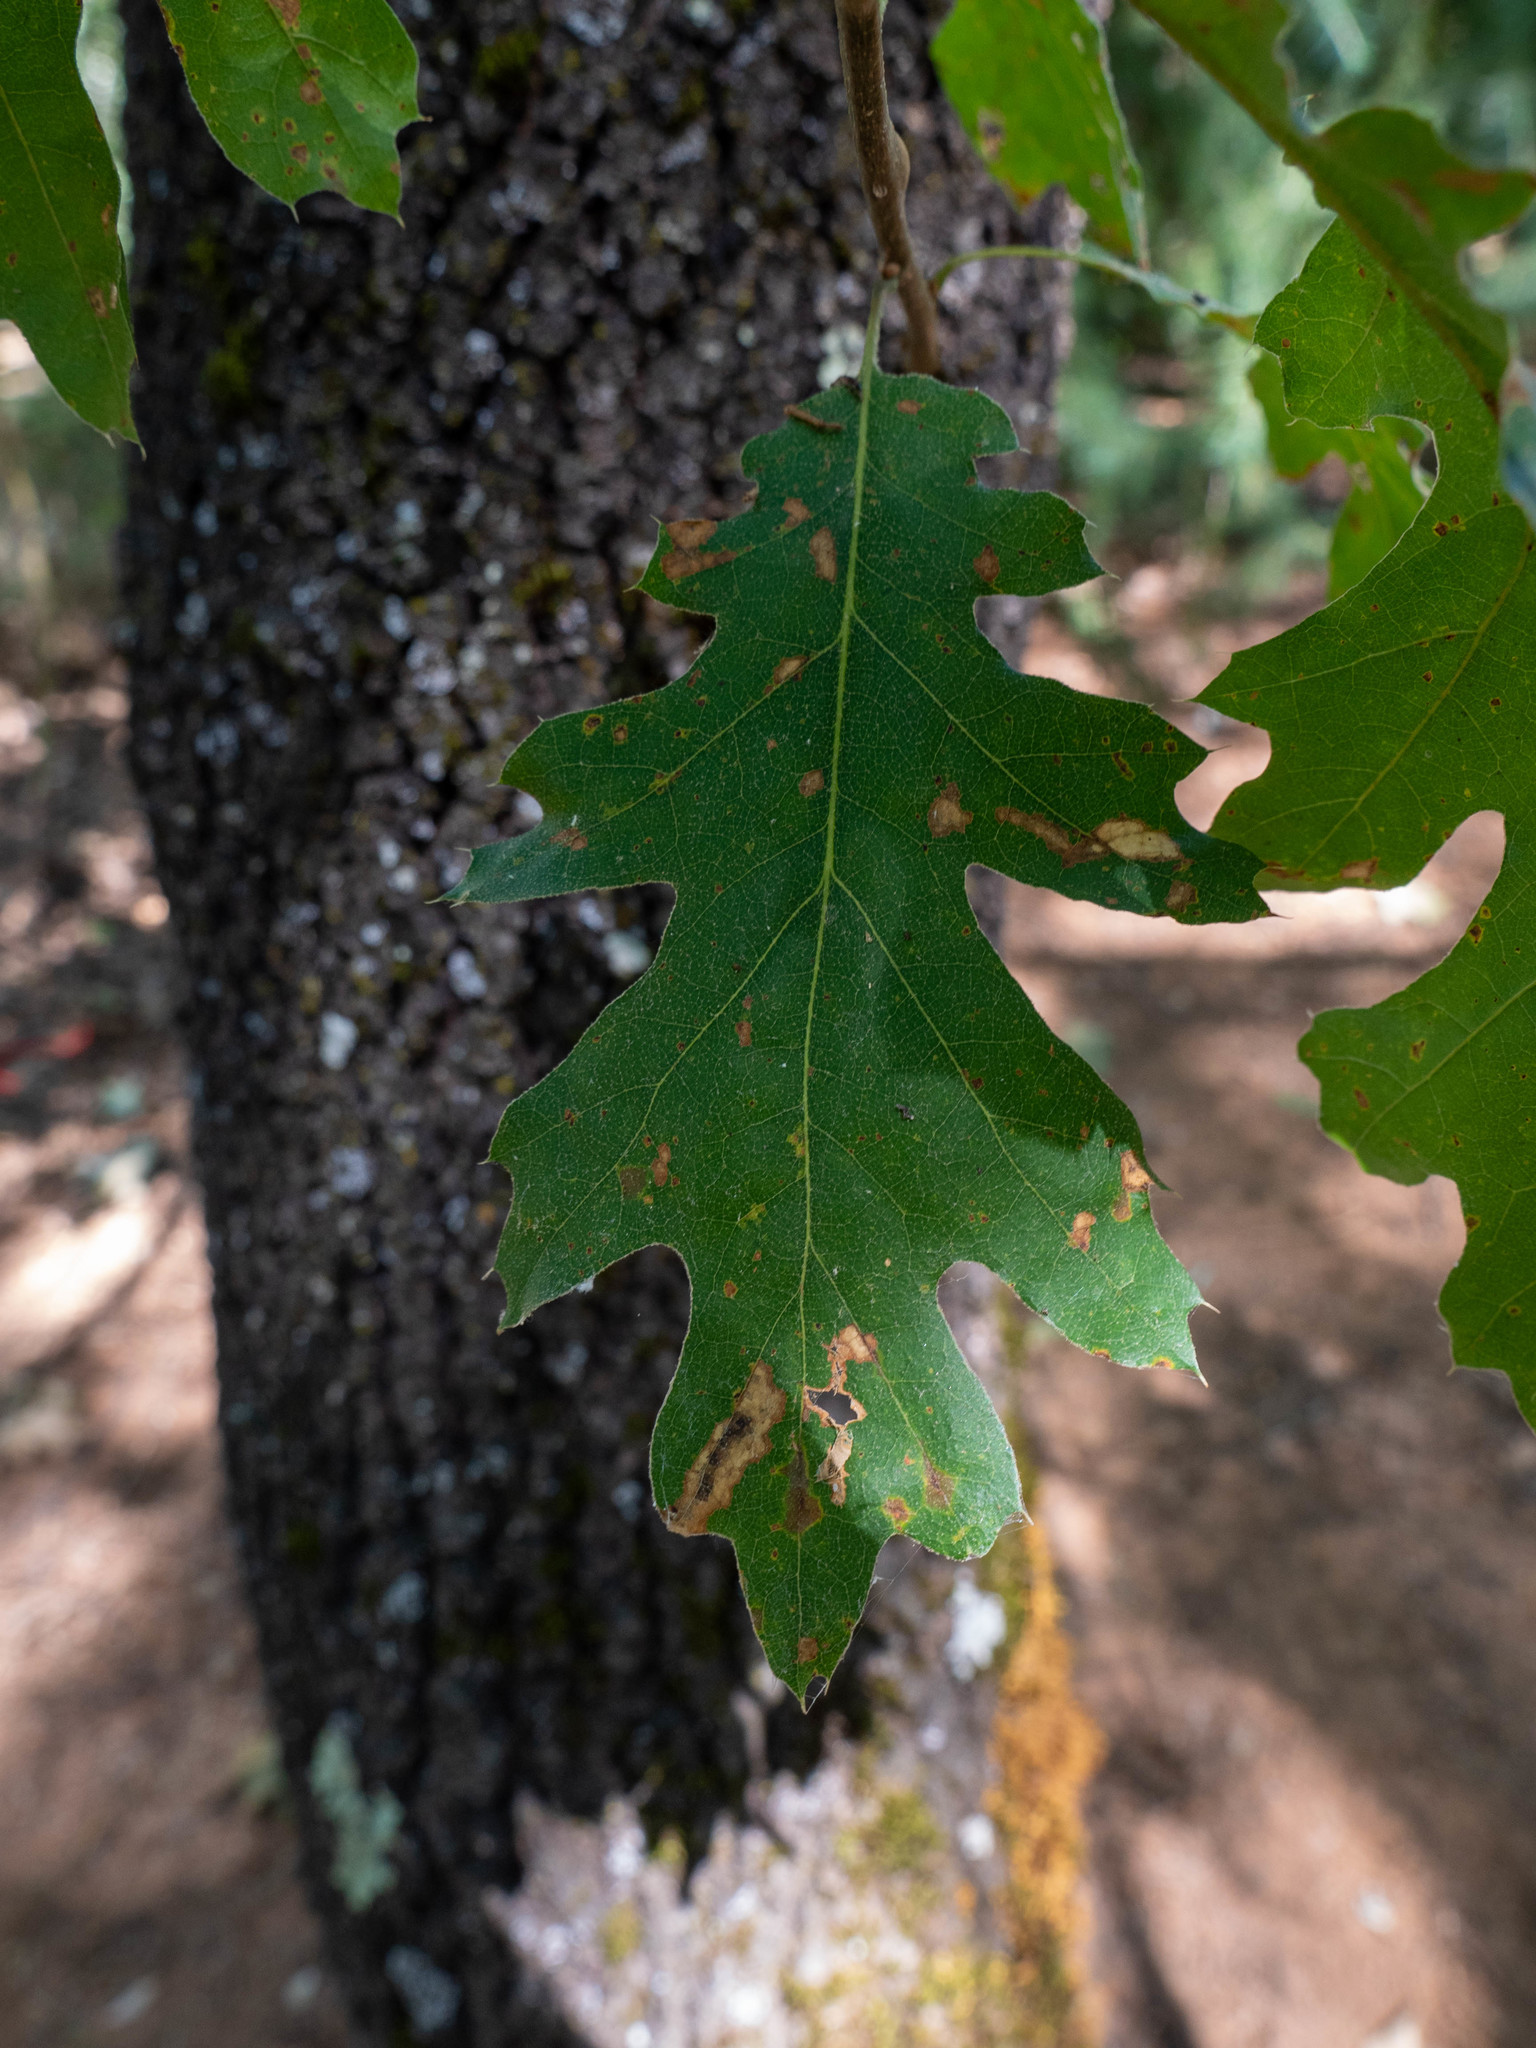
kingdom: Plantae
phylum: Tracheophyta
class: Magnoliopsida
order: Fagales
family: Fagaceae
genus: Quercus
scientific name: Quercus kelloggii
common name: California black oak
